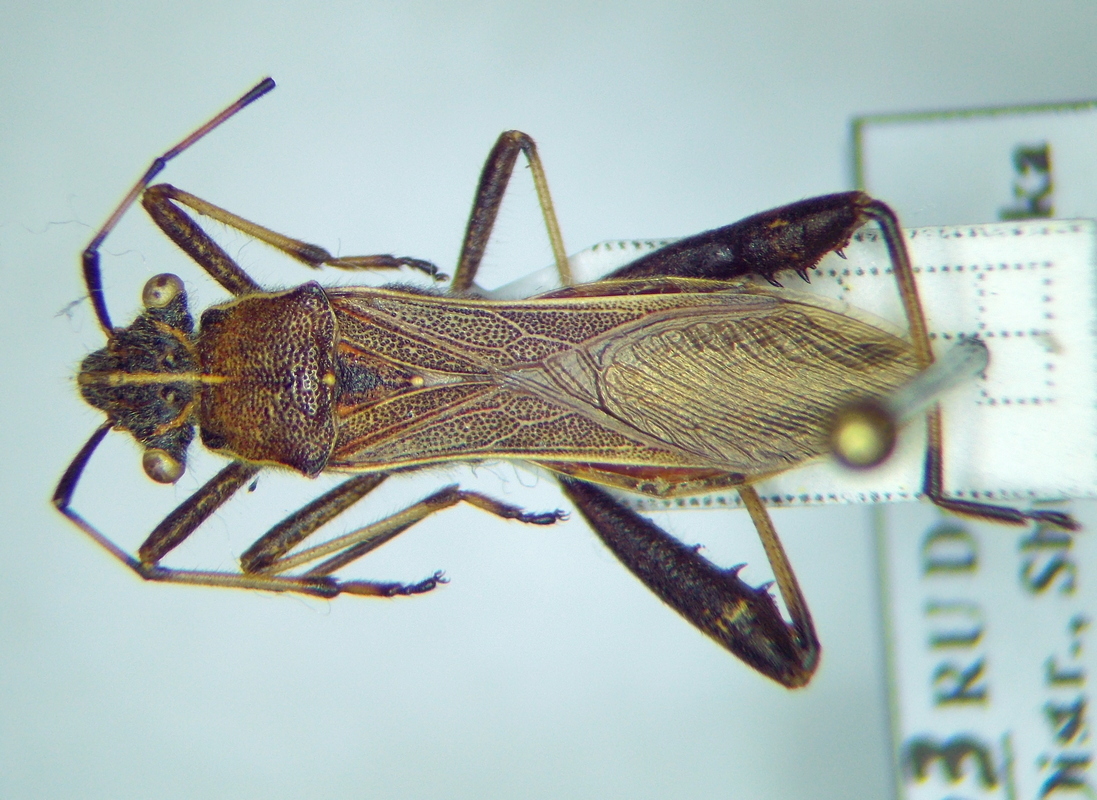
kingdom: Animalia
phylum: Arthropoda
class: Insecta
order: Hemiptera
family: Alydidae
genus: Camptopus
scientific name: Camptopus lateralis
